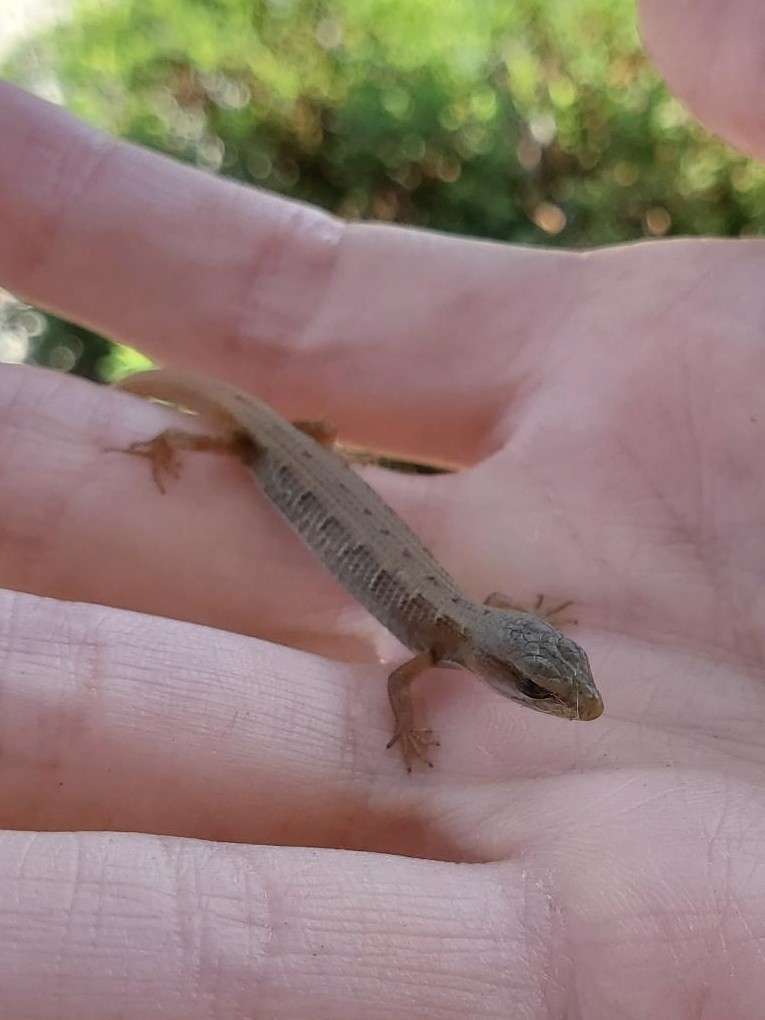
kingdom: Animalia
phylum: Chordata
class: Squamata
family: Anguidae
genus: Elgaria
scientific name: Elgaria multicarinata
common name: Southern alligator lizard
